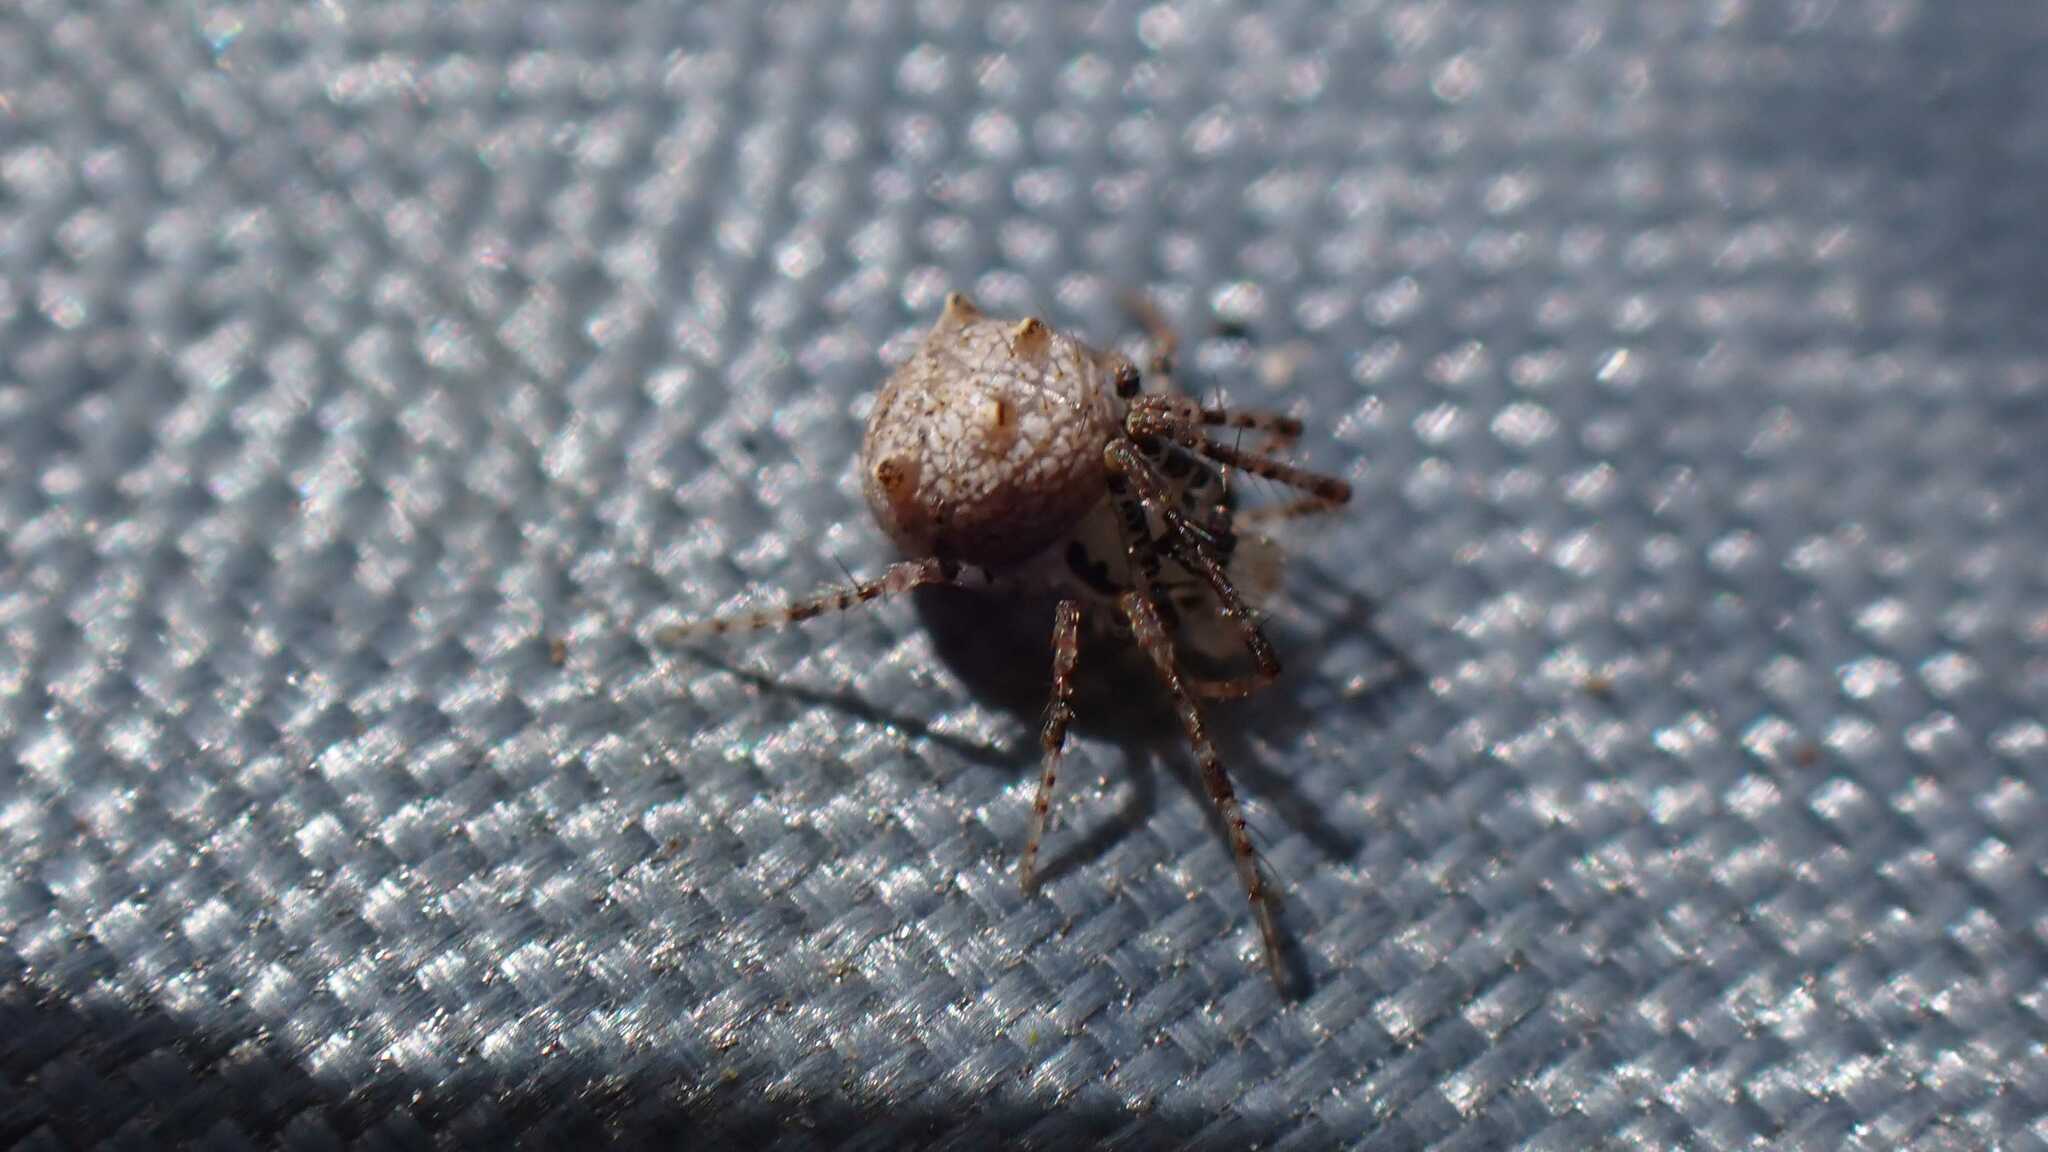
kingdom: Animalia
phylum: Arthropoda
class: Arachnida
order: Araneae
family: Mimetidae
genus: Ero
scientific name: Ero aphana
